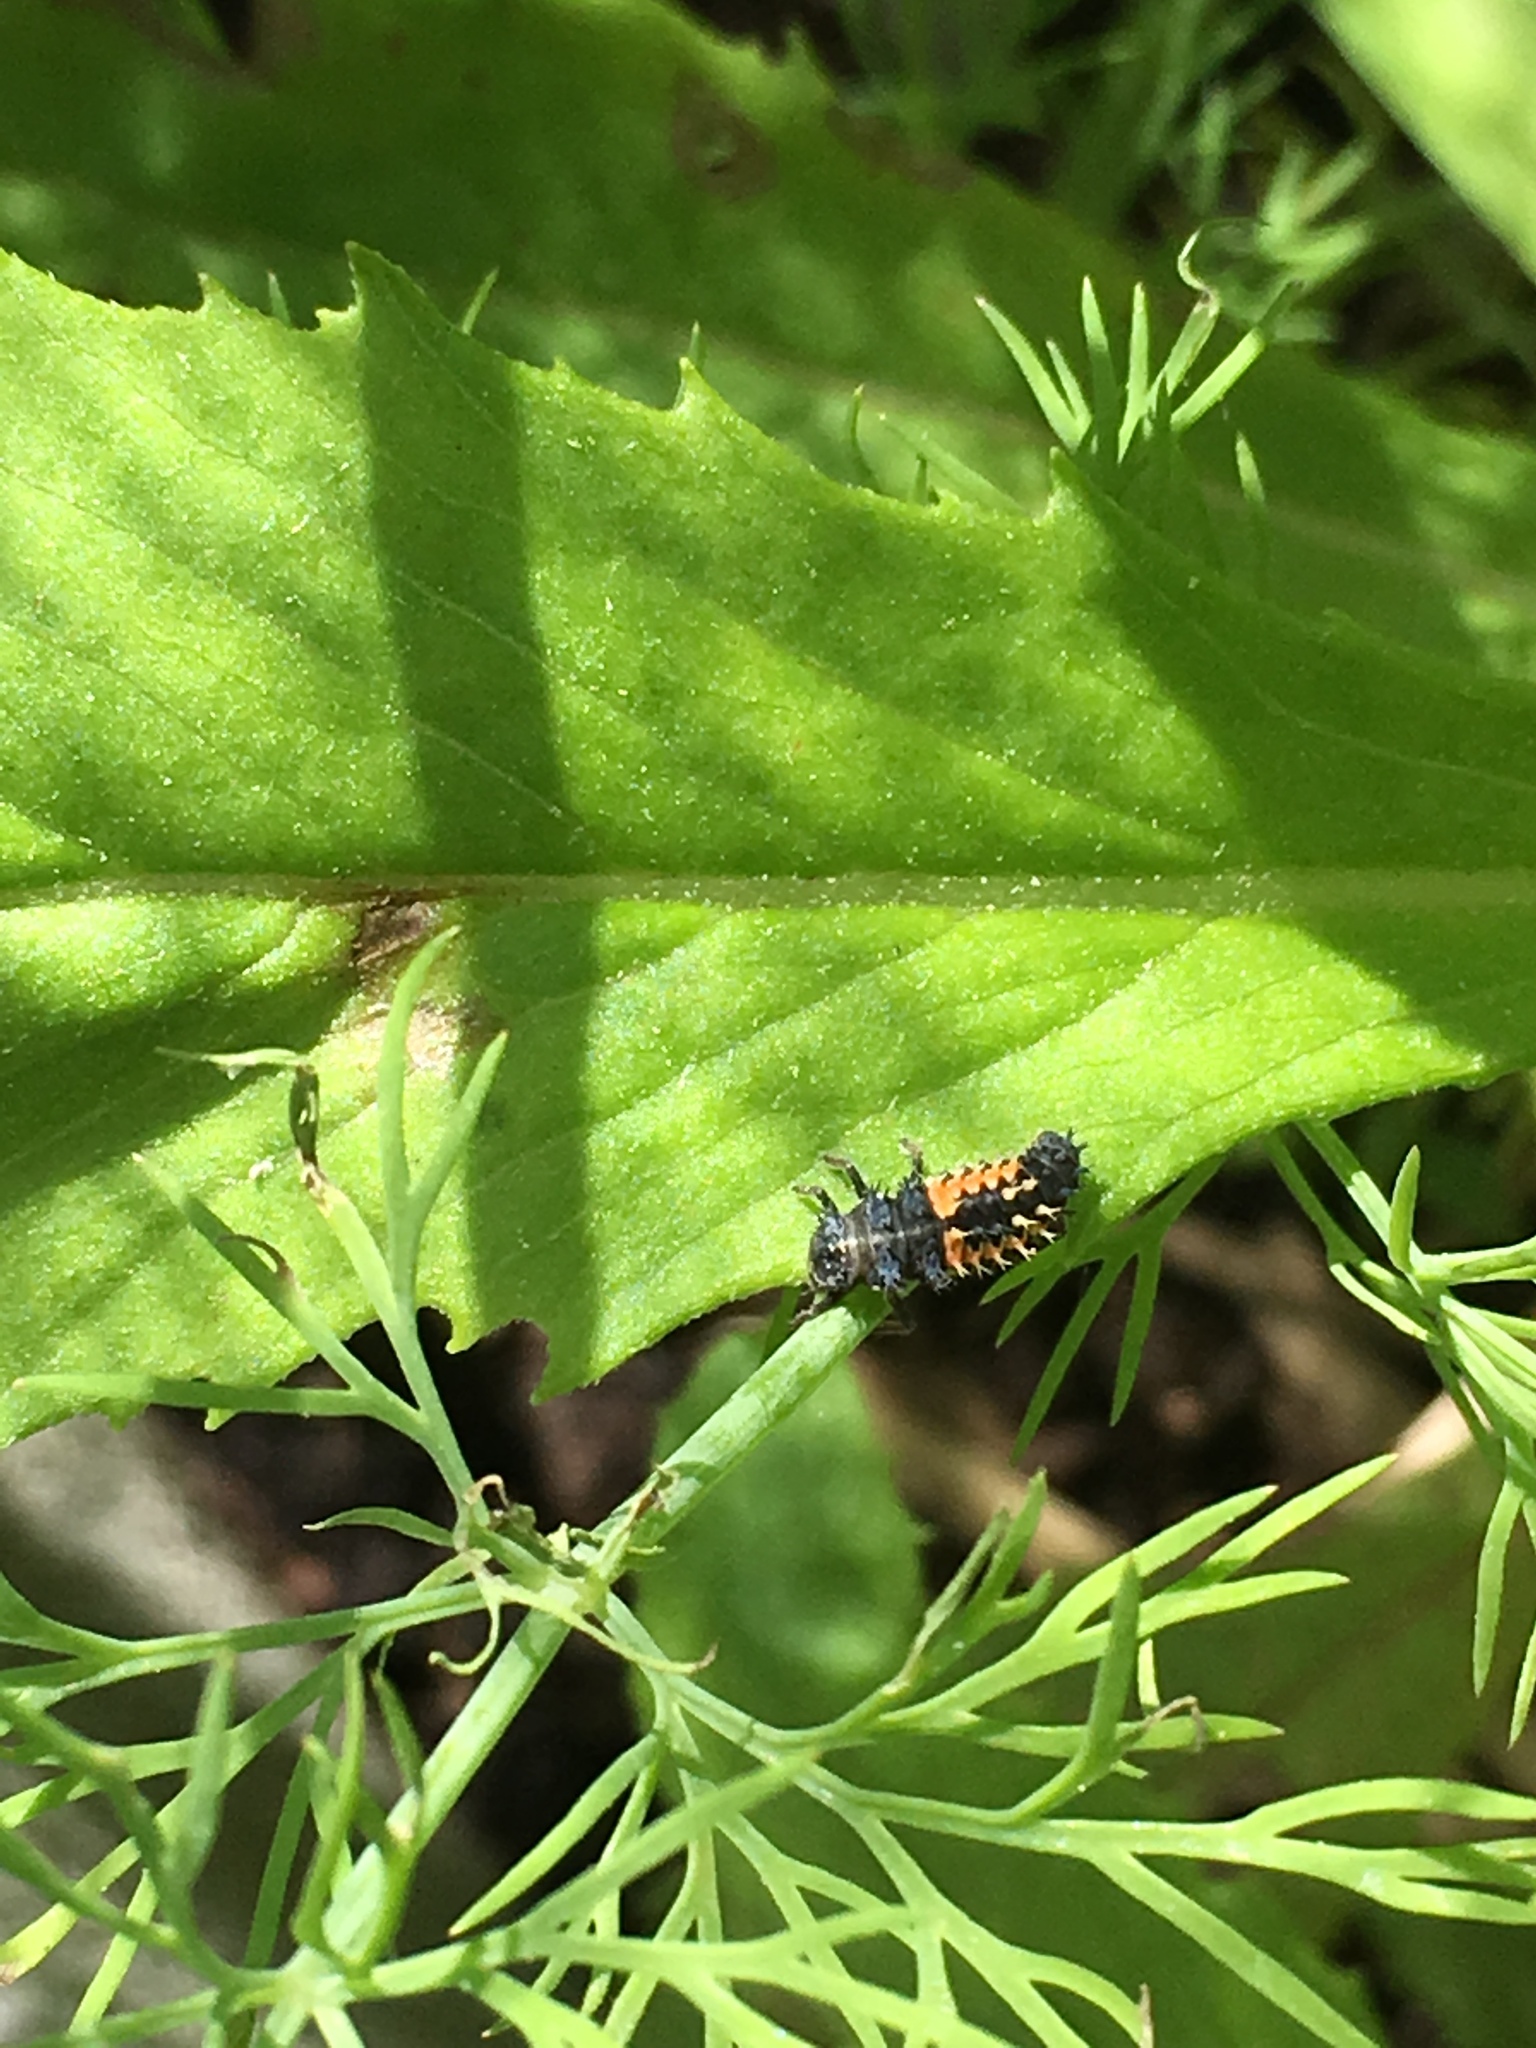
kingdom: Animalia
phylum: Arthropoda
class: Insecta
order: Coleoptera
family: Coccinellidae
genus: Harmonia
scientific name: Harmonia axyridis
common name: Harlequin ladybird
